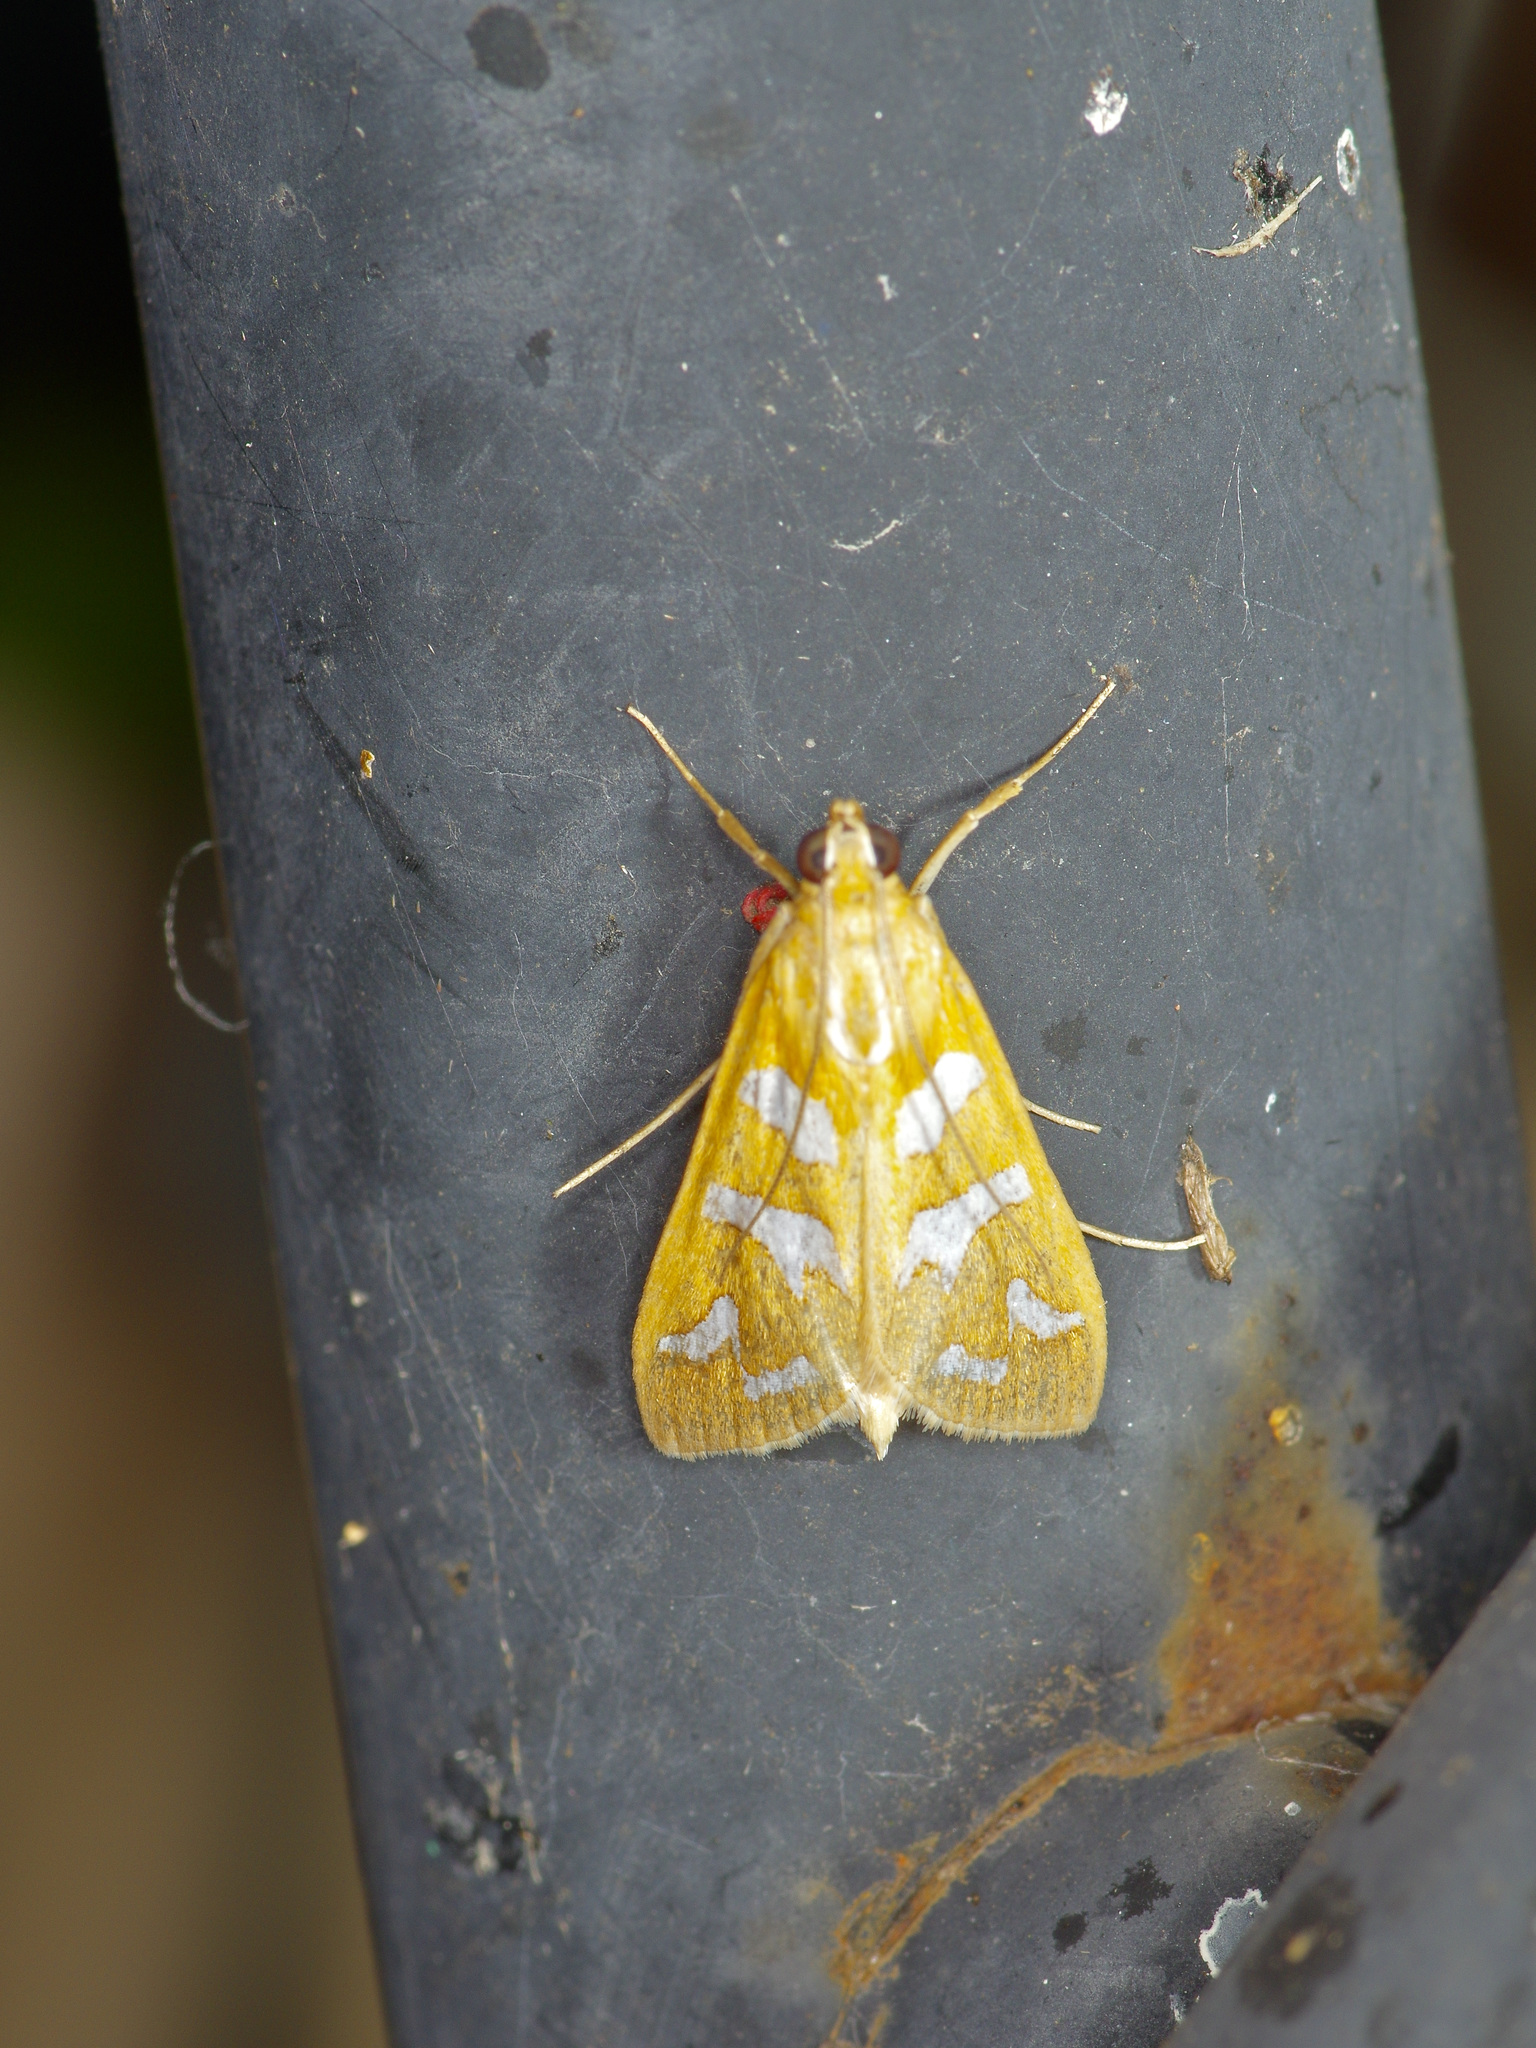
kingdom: Animalia
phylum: Arthropoda
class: Insecta
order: Lepidoptera
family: Crambidae
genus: Diastictis
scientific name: Diastictis fracturalis
